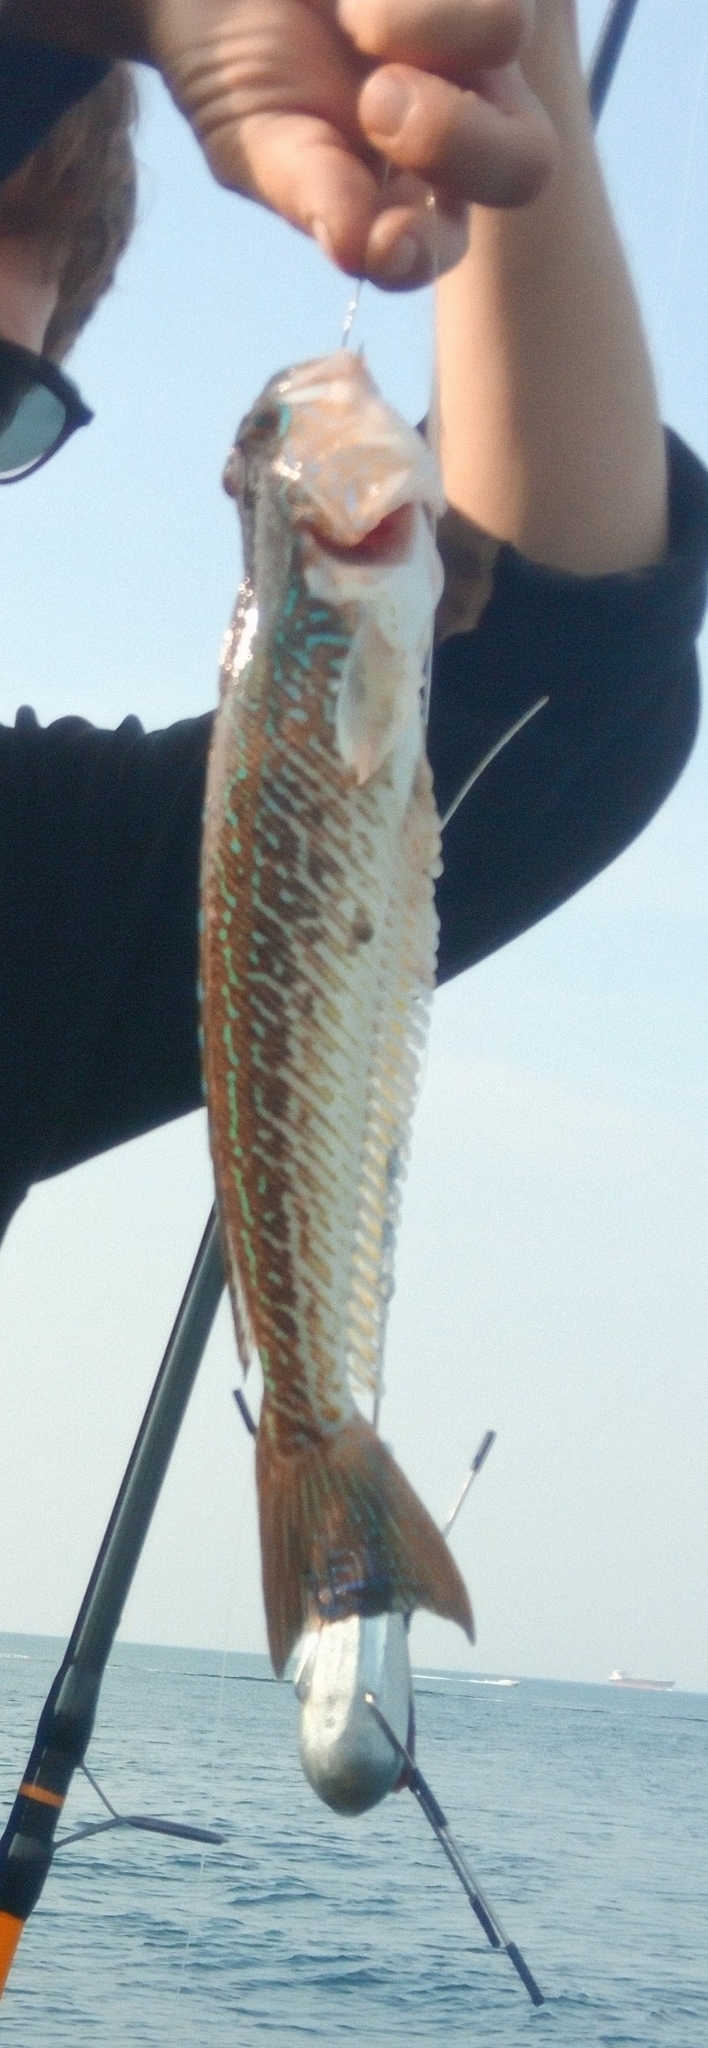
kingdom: Animalia
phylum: Chordata
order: Perciformes
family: Trachinidae
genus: Trachinus
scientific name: Trachinus draco
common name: Greater weever
